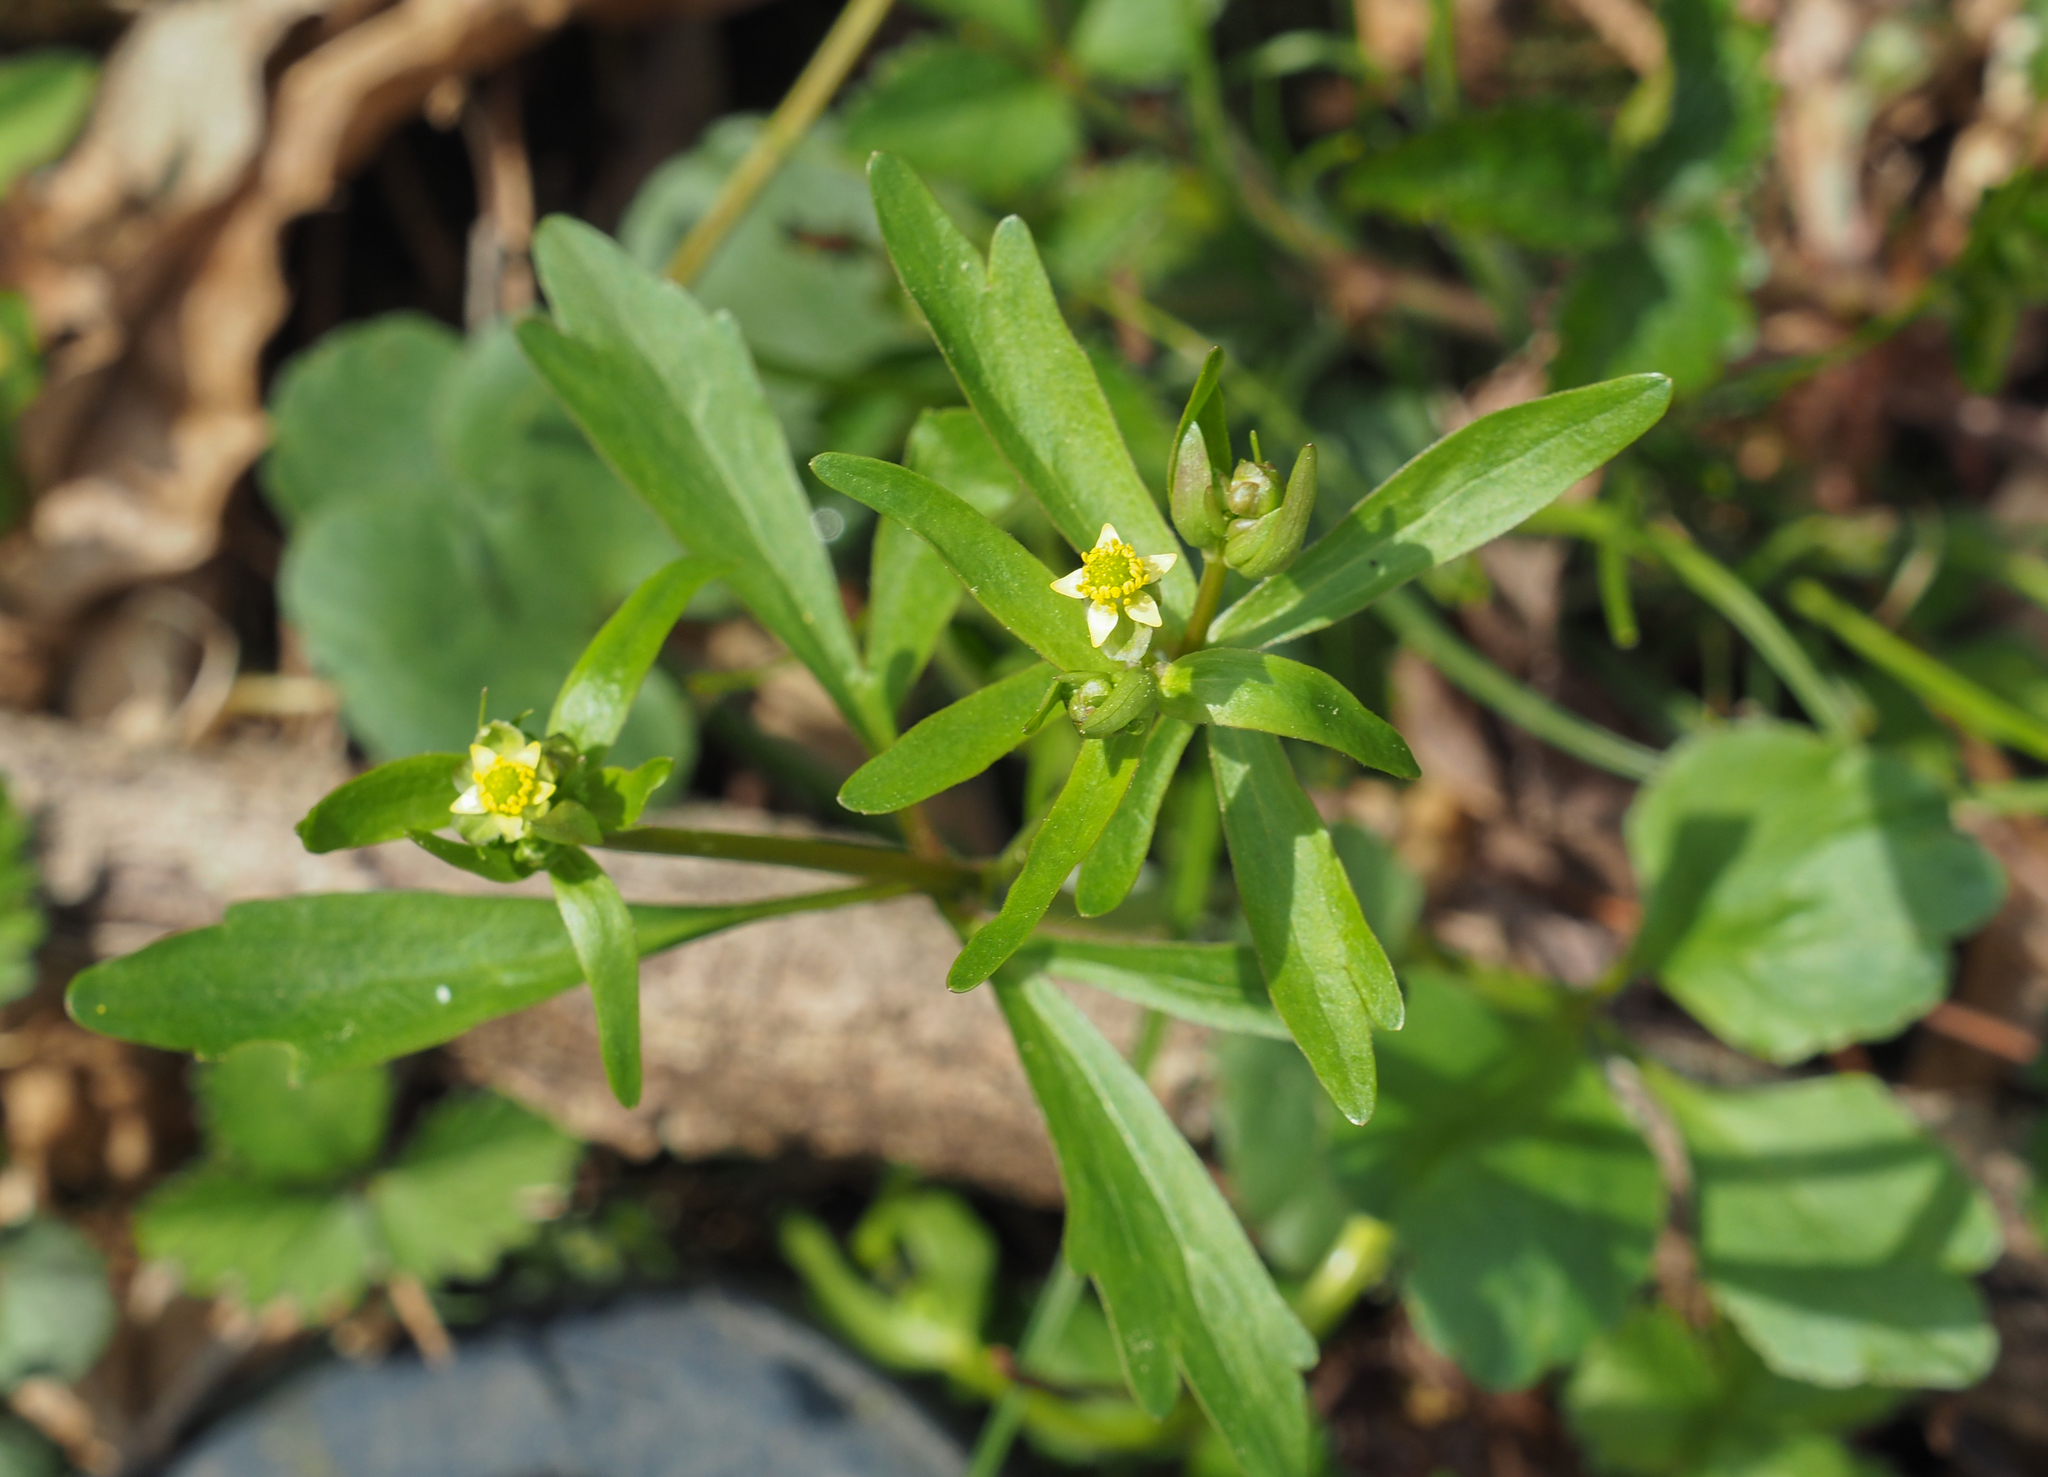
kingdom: Plantae
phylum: Tracheophyta
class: Magnoliopsida
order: Ranunculales
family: Ranunculaceae
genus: Ranunculus
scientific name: Ranunculus abortivus
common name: Early wood buttercup
